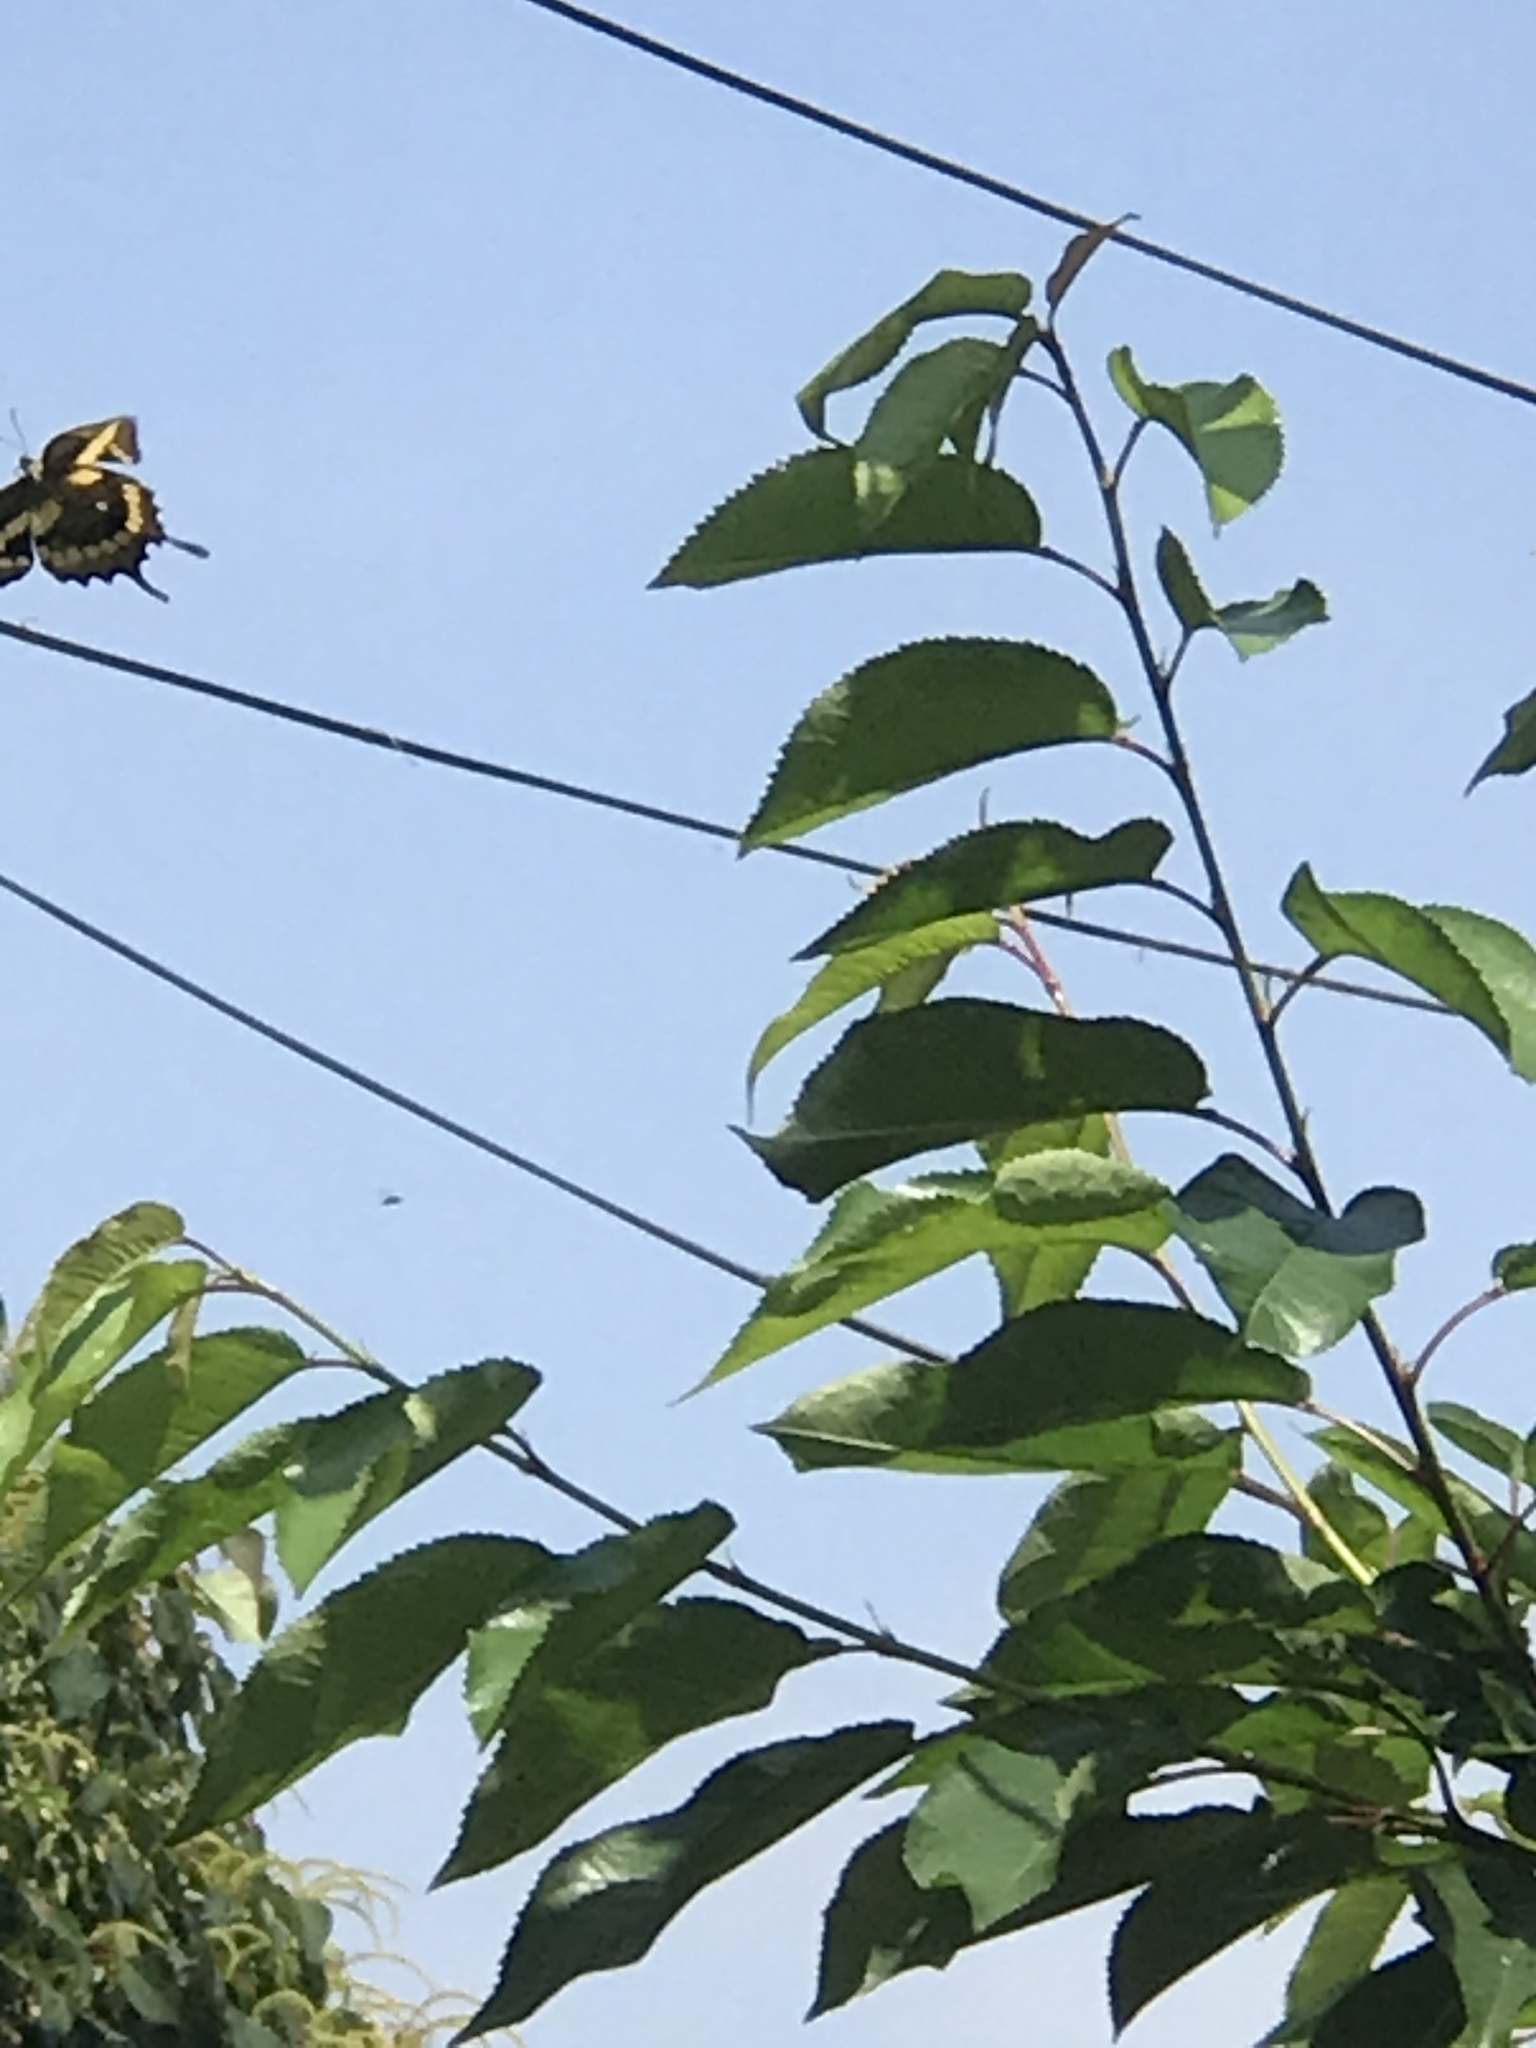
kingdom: Animalia
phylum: Arthropoda
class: Insecta
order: Lepidoptera
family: Papilionidae
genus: Papilio
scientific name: Papilio rumiko
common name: Western giant swallowtail
